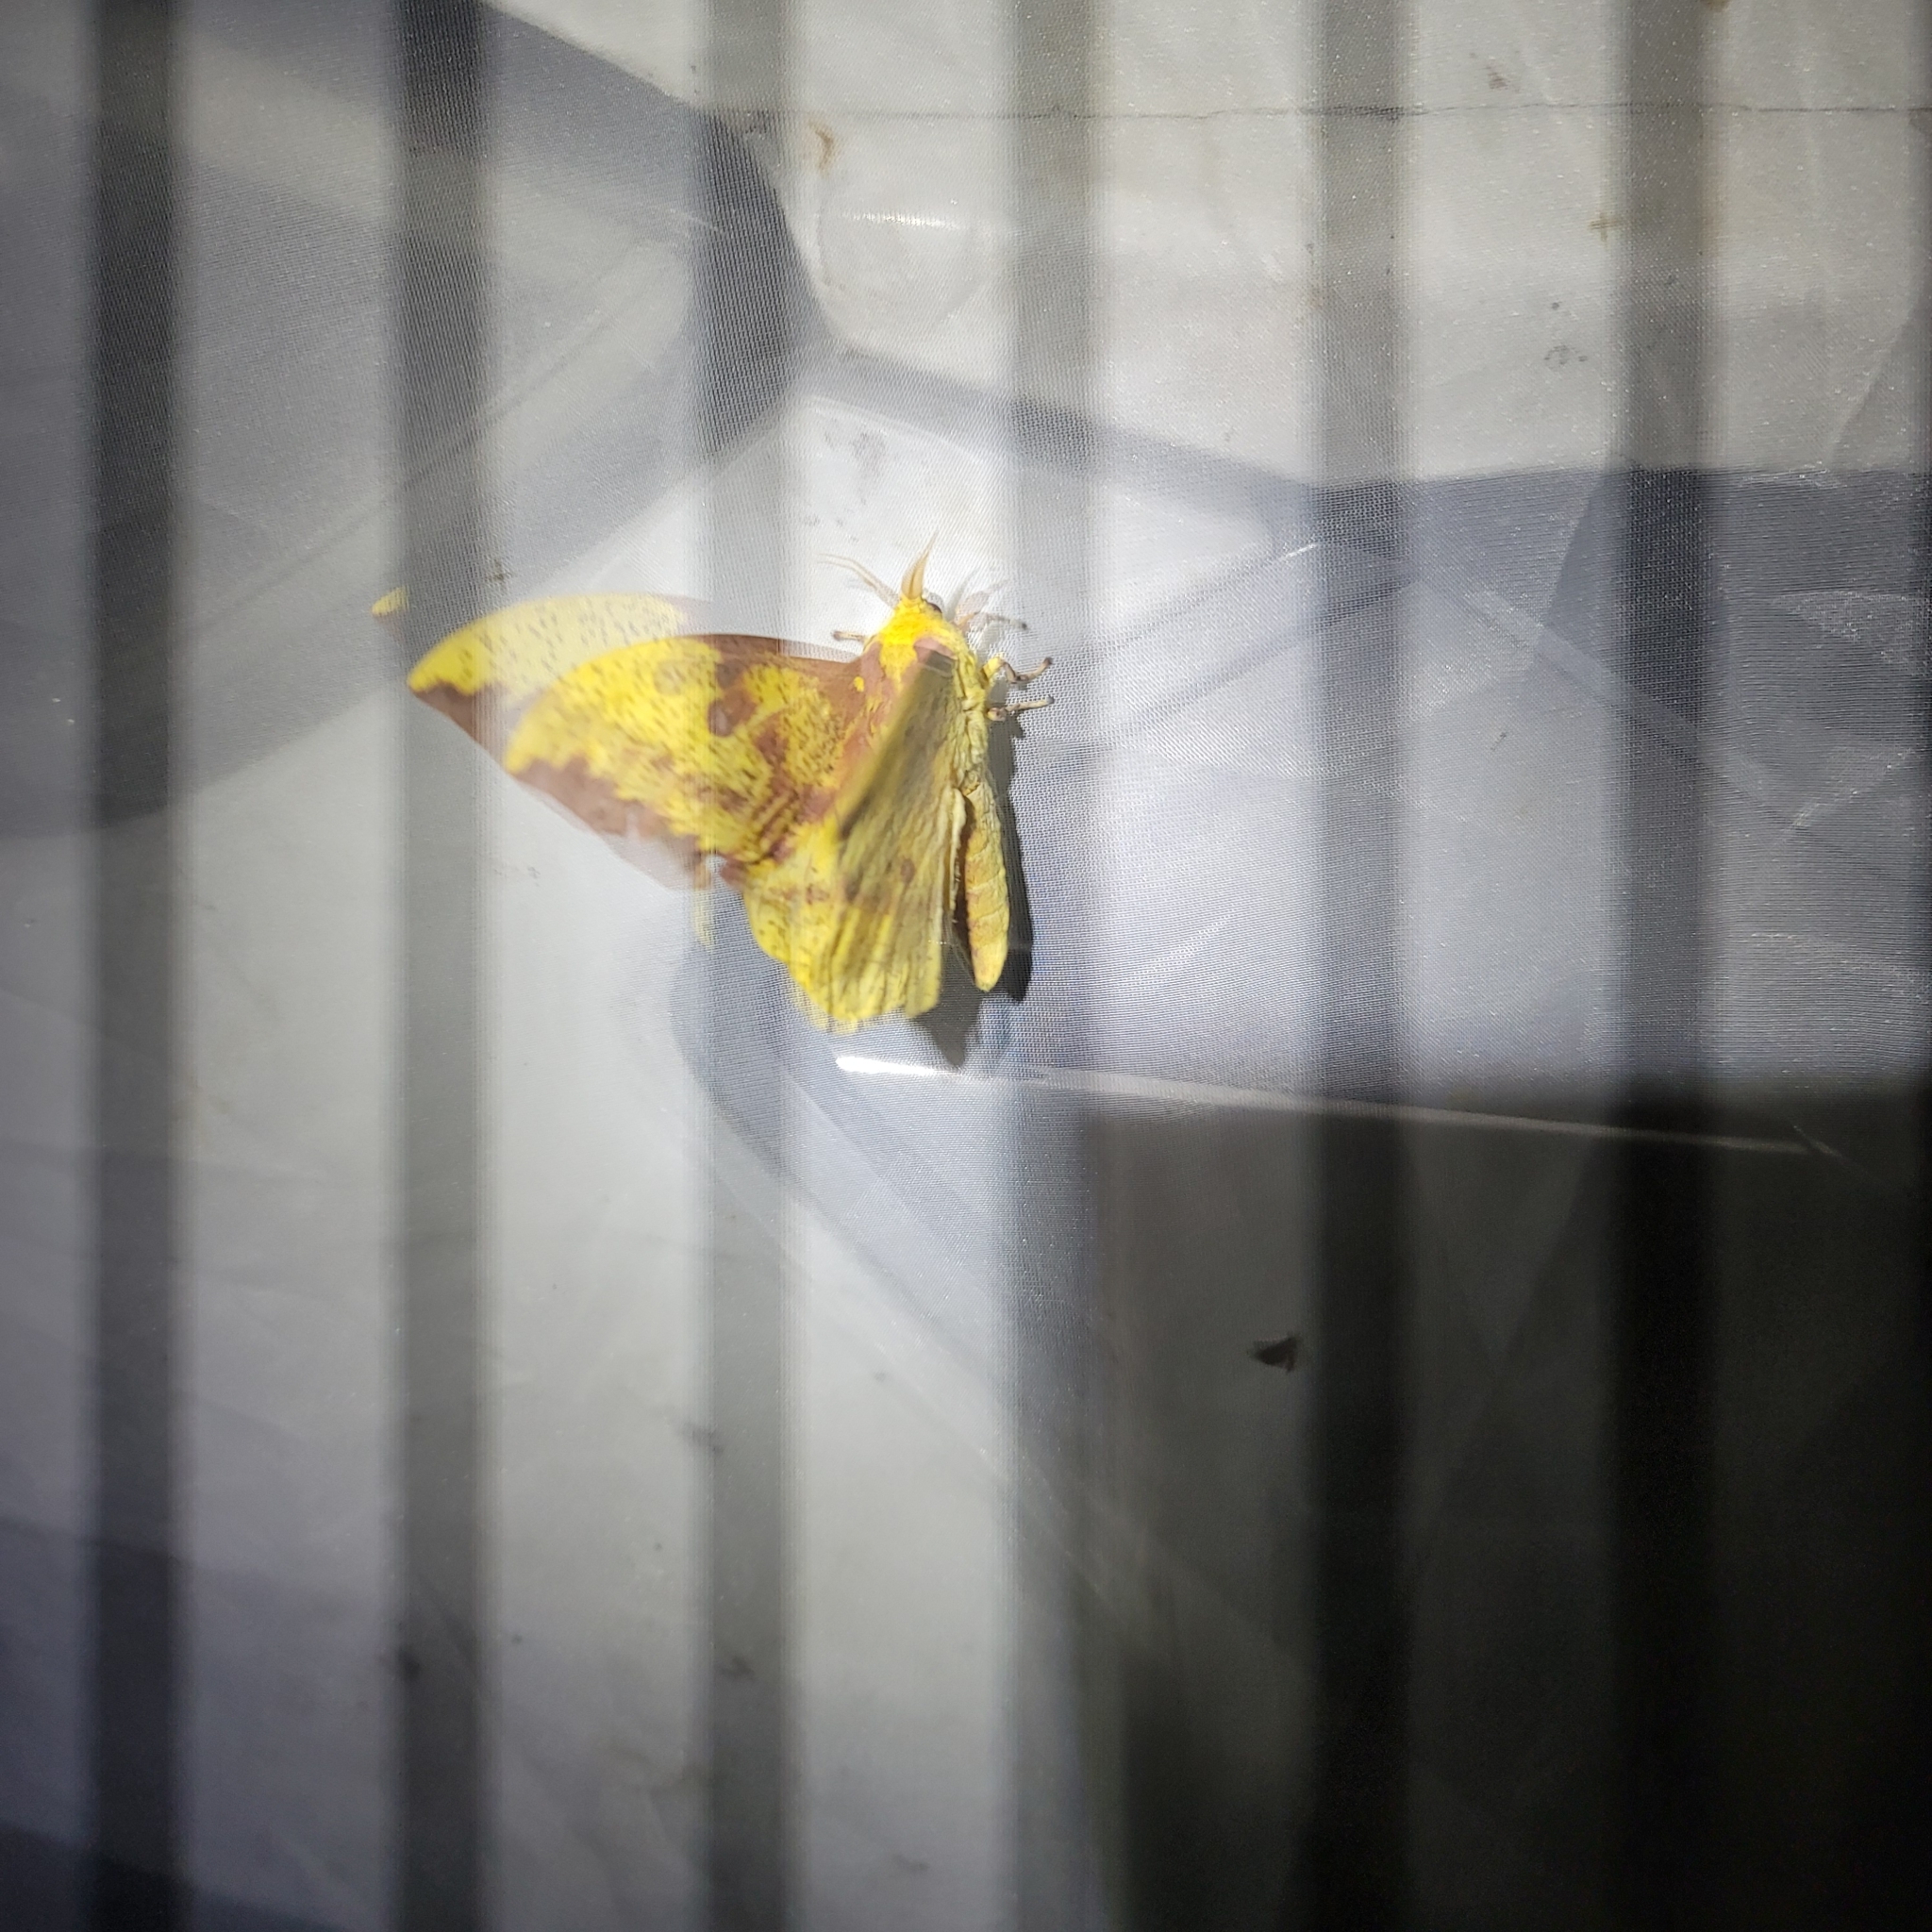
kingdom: Animalia
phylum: Arthropoda
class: Insecta
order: Lepidoptera
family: Saturniidae
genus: Eacles
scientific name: Eacles imperialis
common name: Imperial moth
